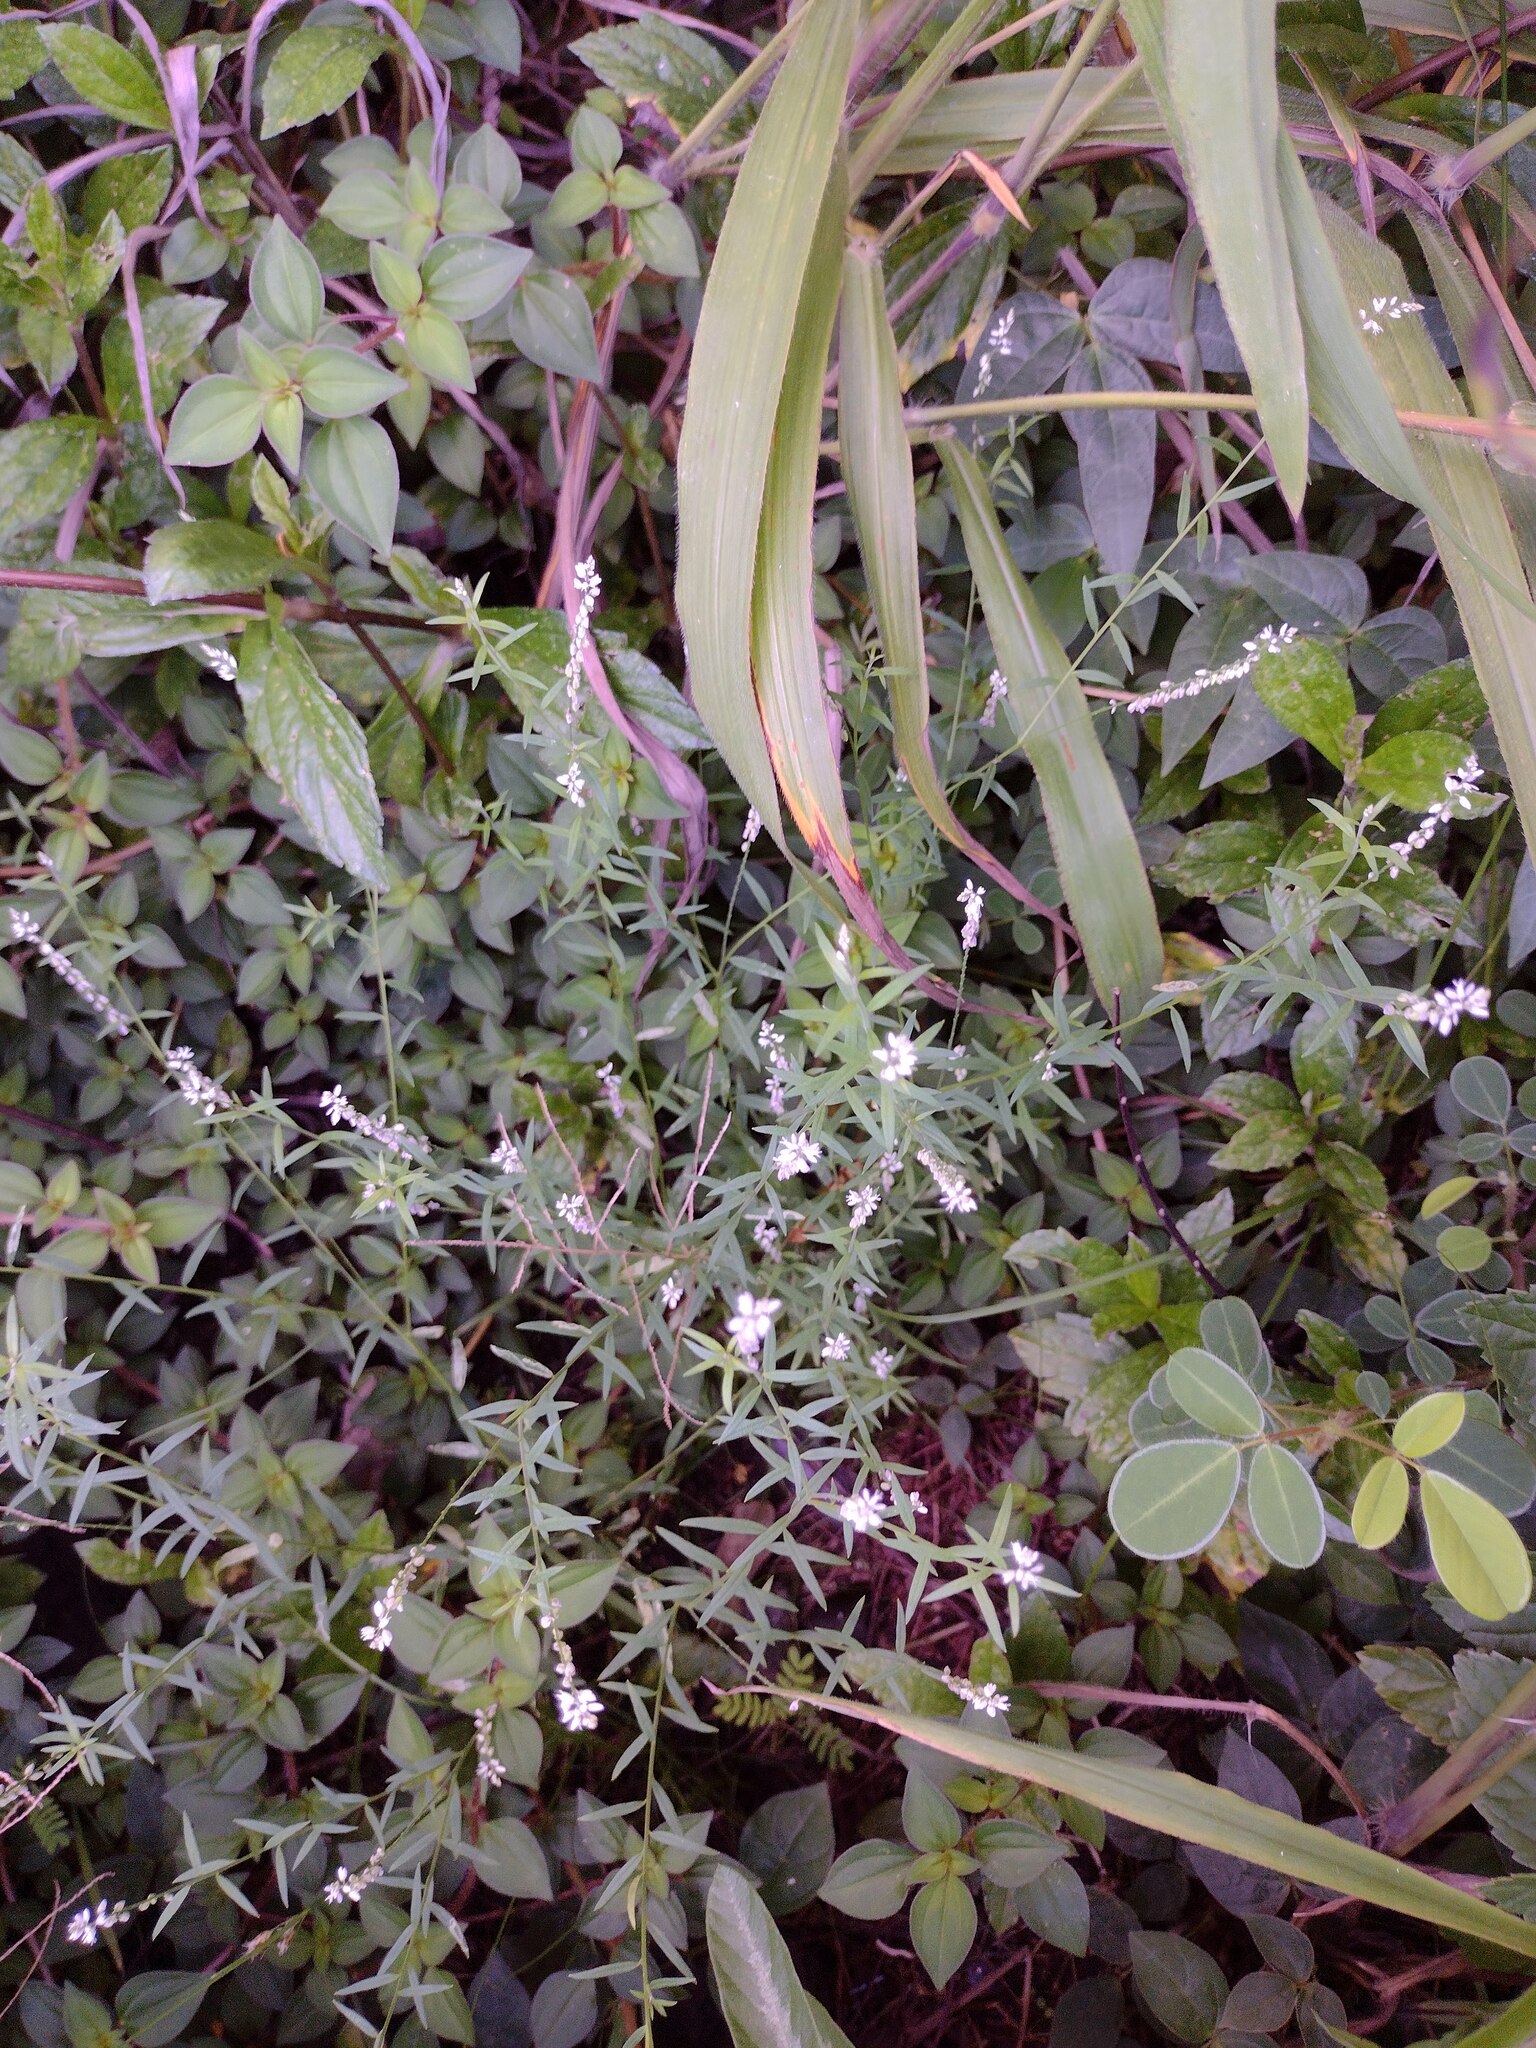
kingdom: Plantae
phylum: Tracheophyta
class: Magnoliopsida
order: Fabales
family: Polygalaceae
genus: Polygala
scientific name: Polygala paniculata
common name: Orosne
